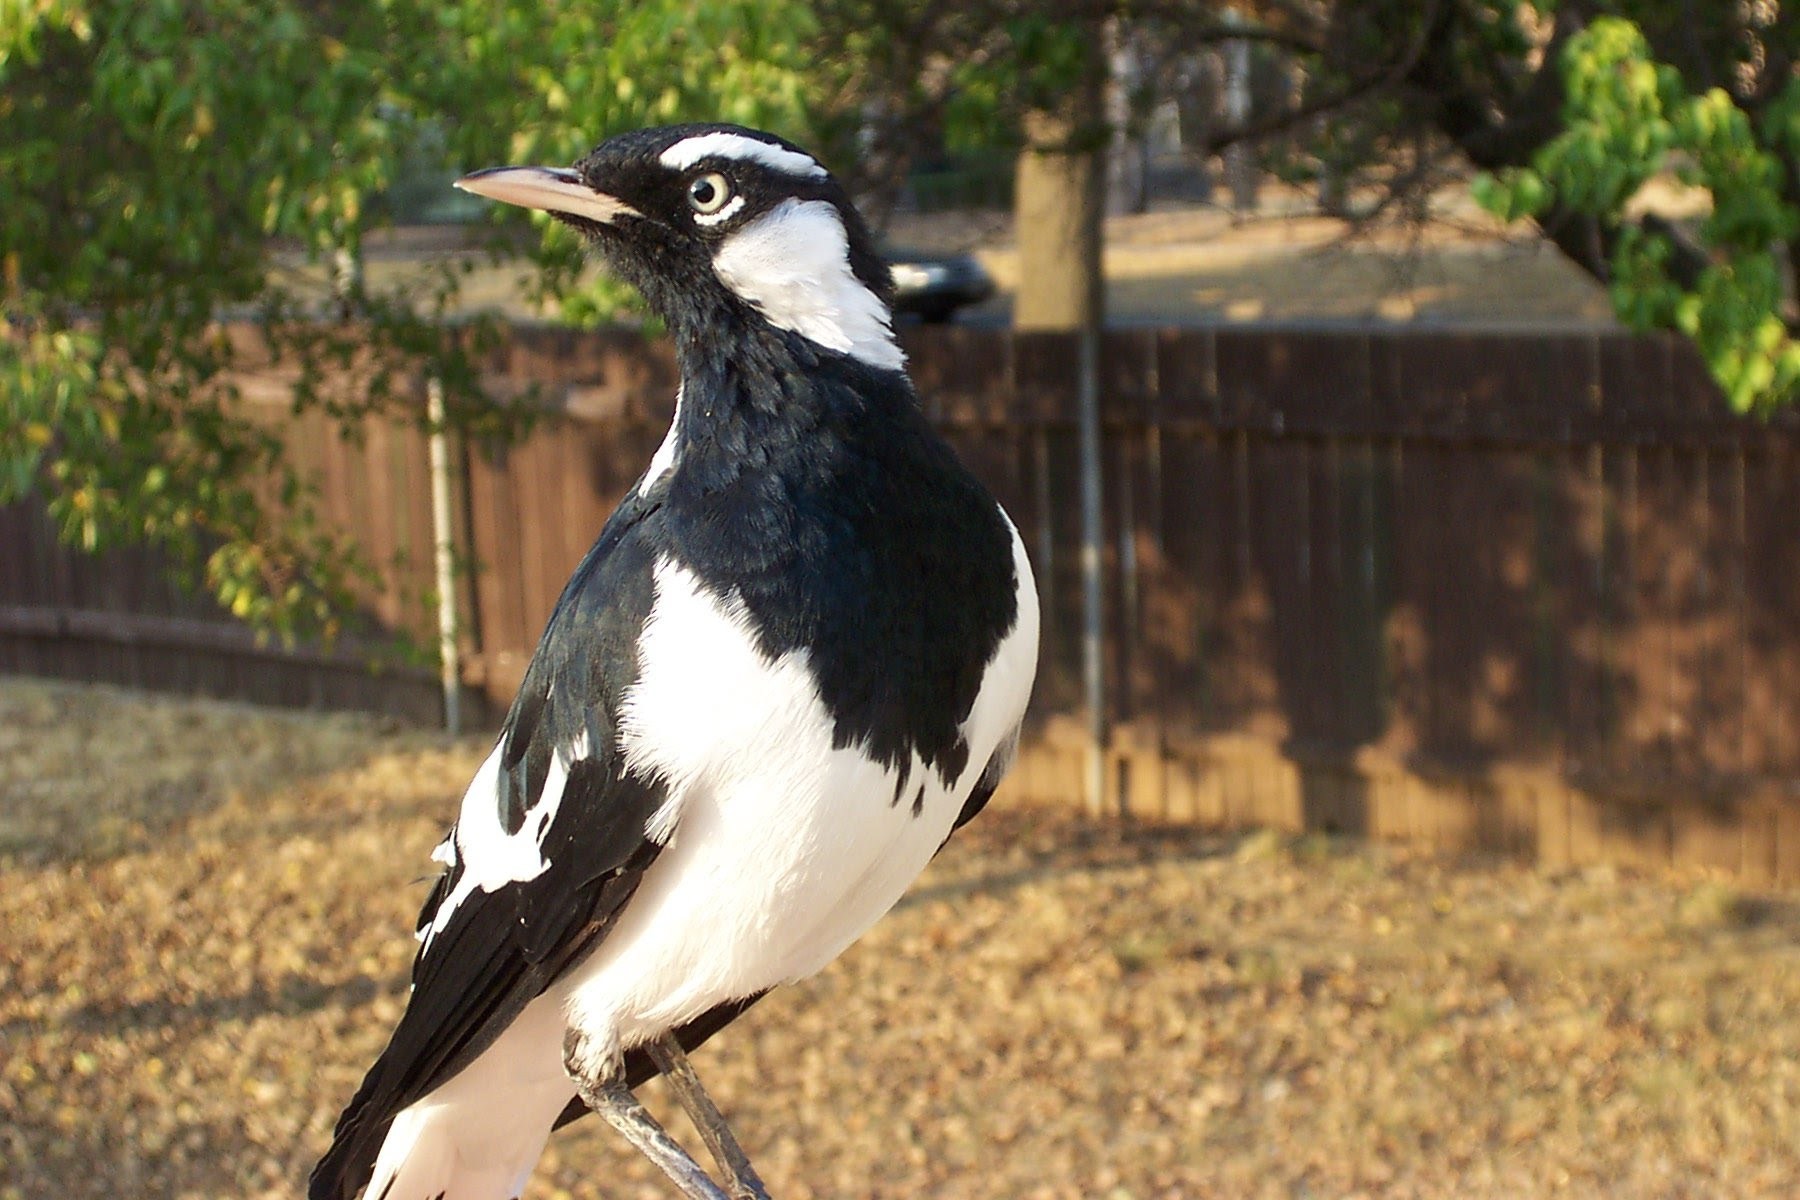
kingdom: Animalia
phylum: Chordata
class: Aves
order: Passeriformes
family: Monarchidae
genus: Grallina
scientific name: Grallina cyanoleuca
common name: Magpie-lark
